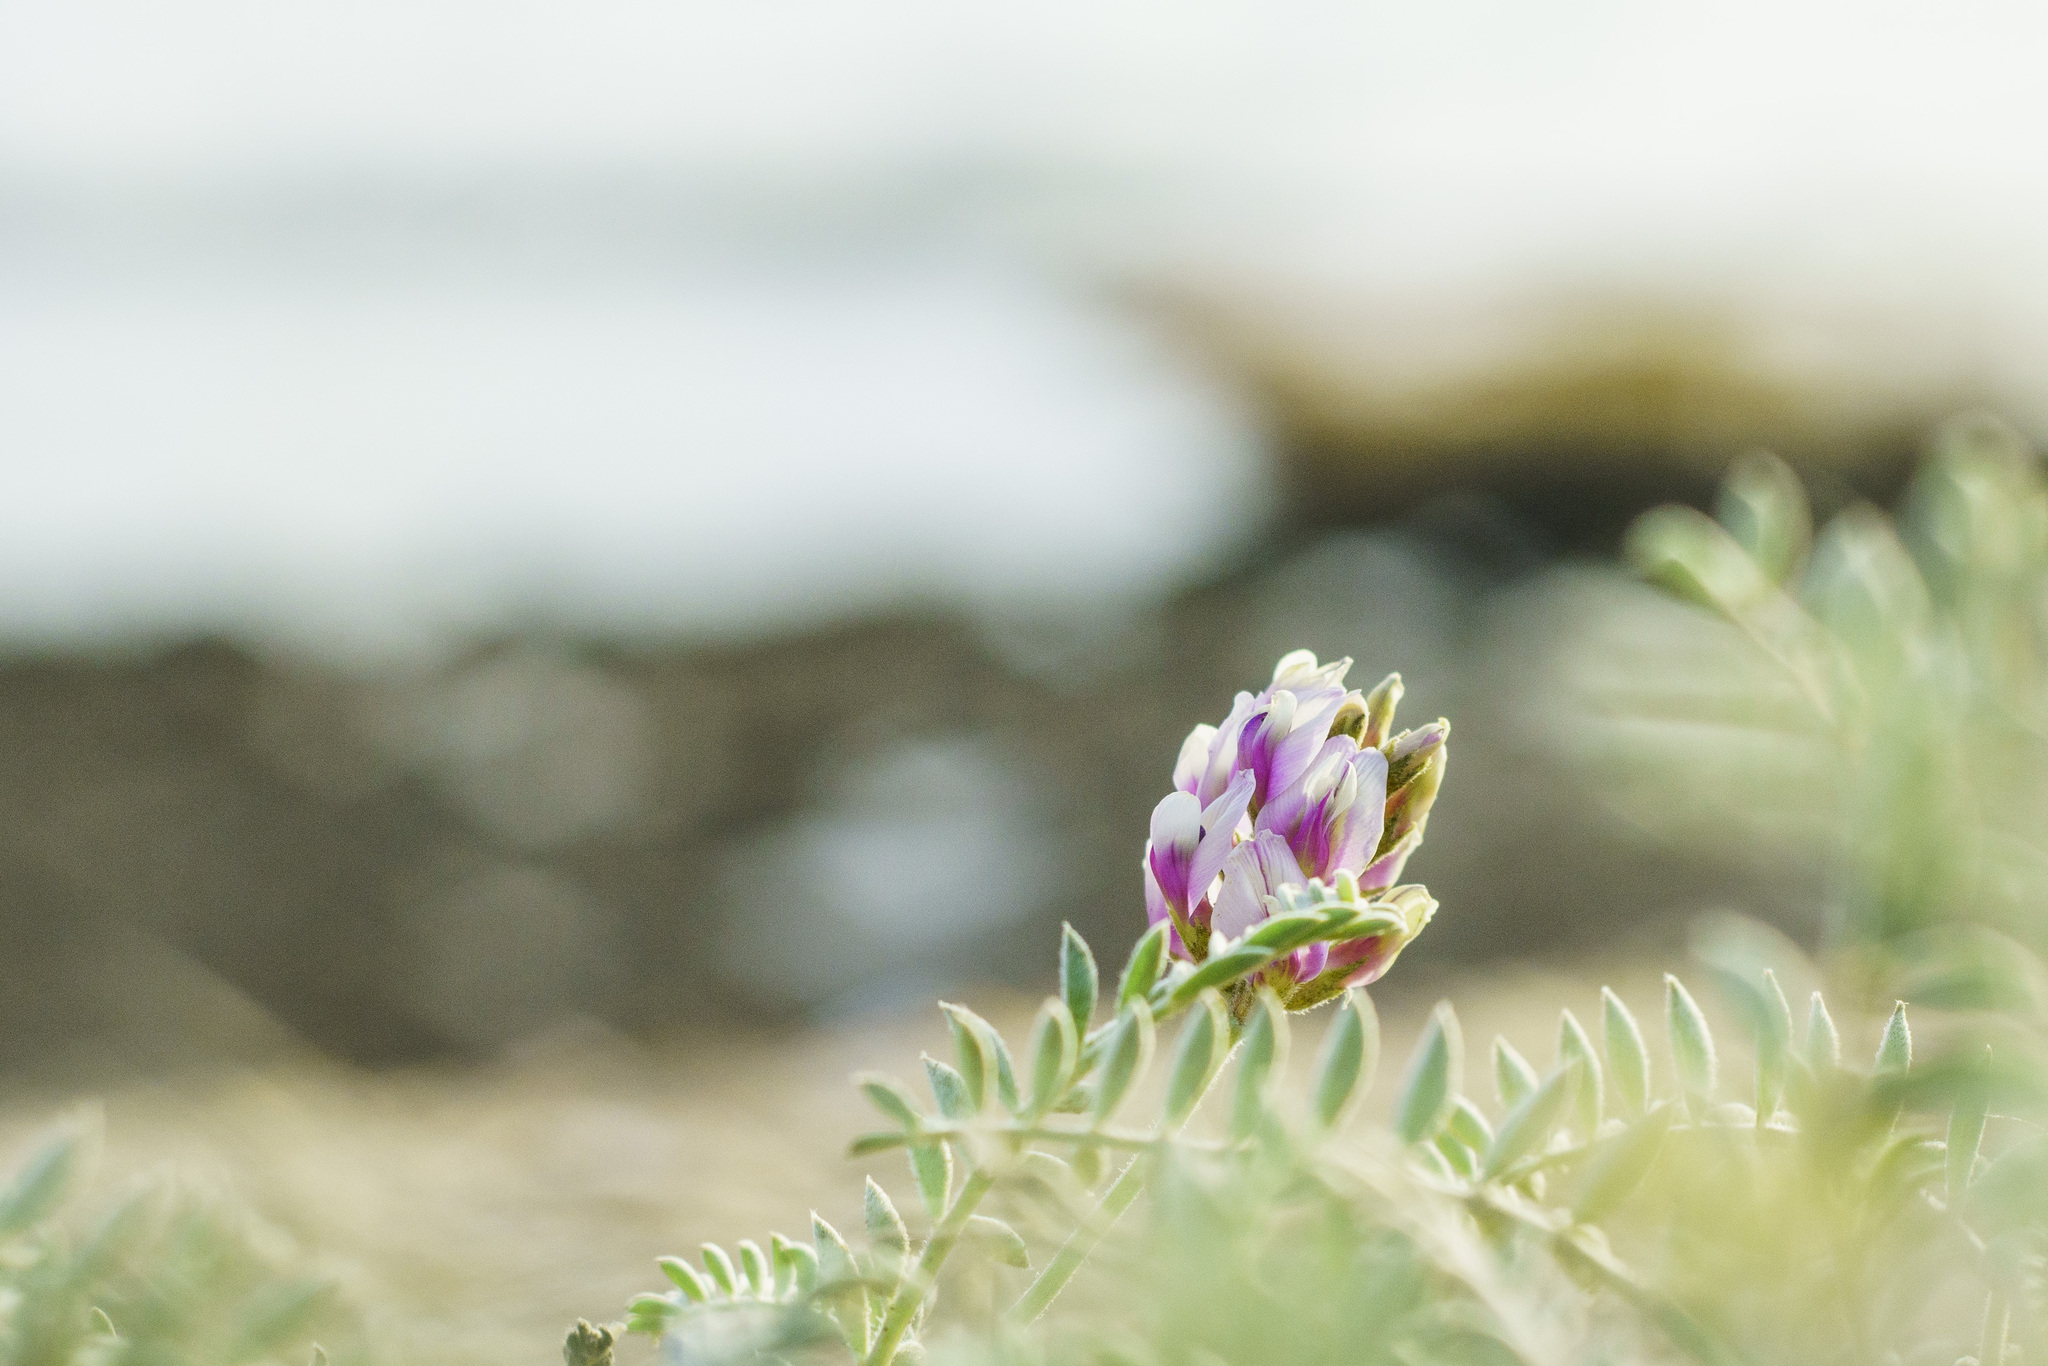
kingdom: Plantae
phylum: Tracheophyta
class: Magnoliopsida
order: Fabales
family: Fabaceae
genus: Astragalus
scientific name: Astragalus harbisonii
